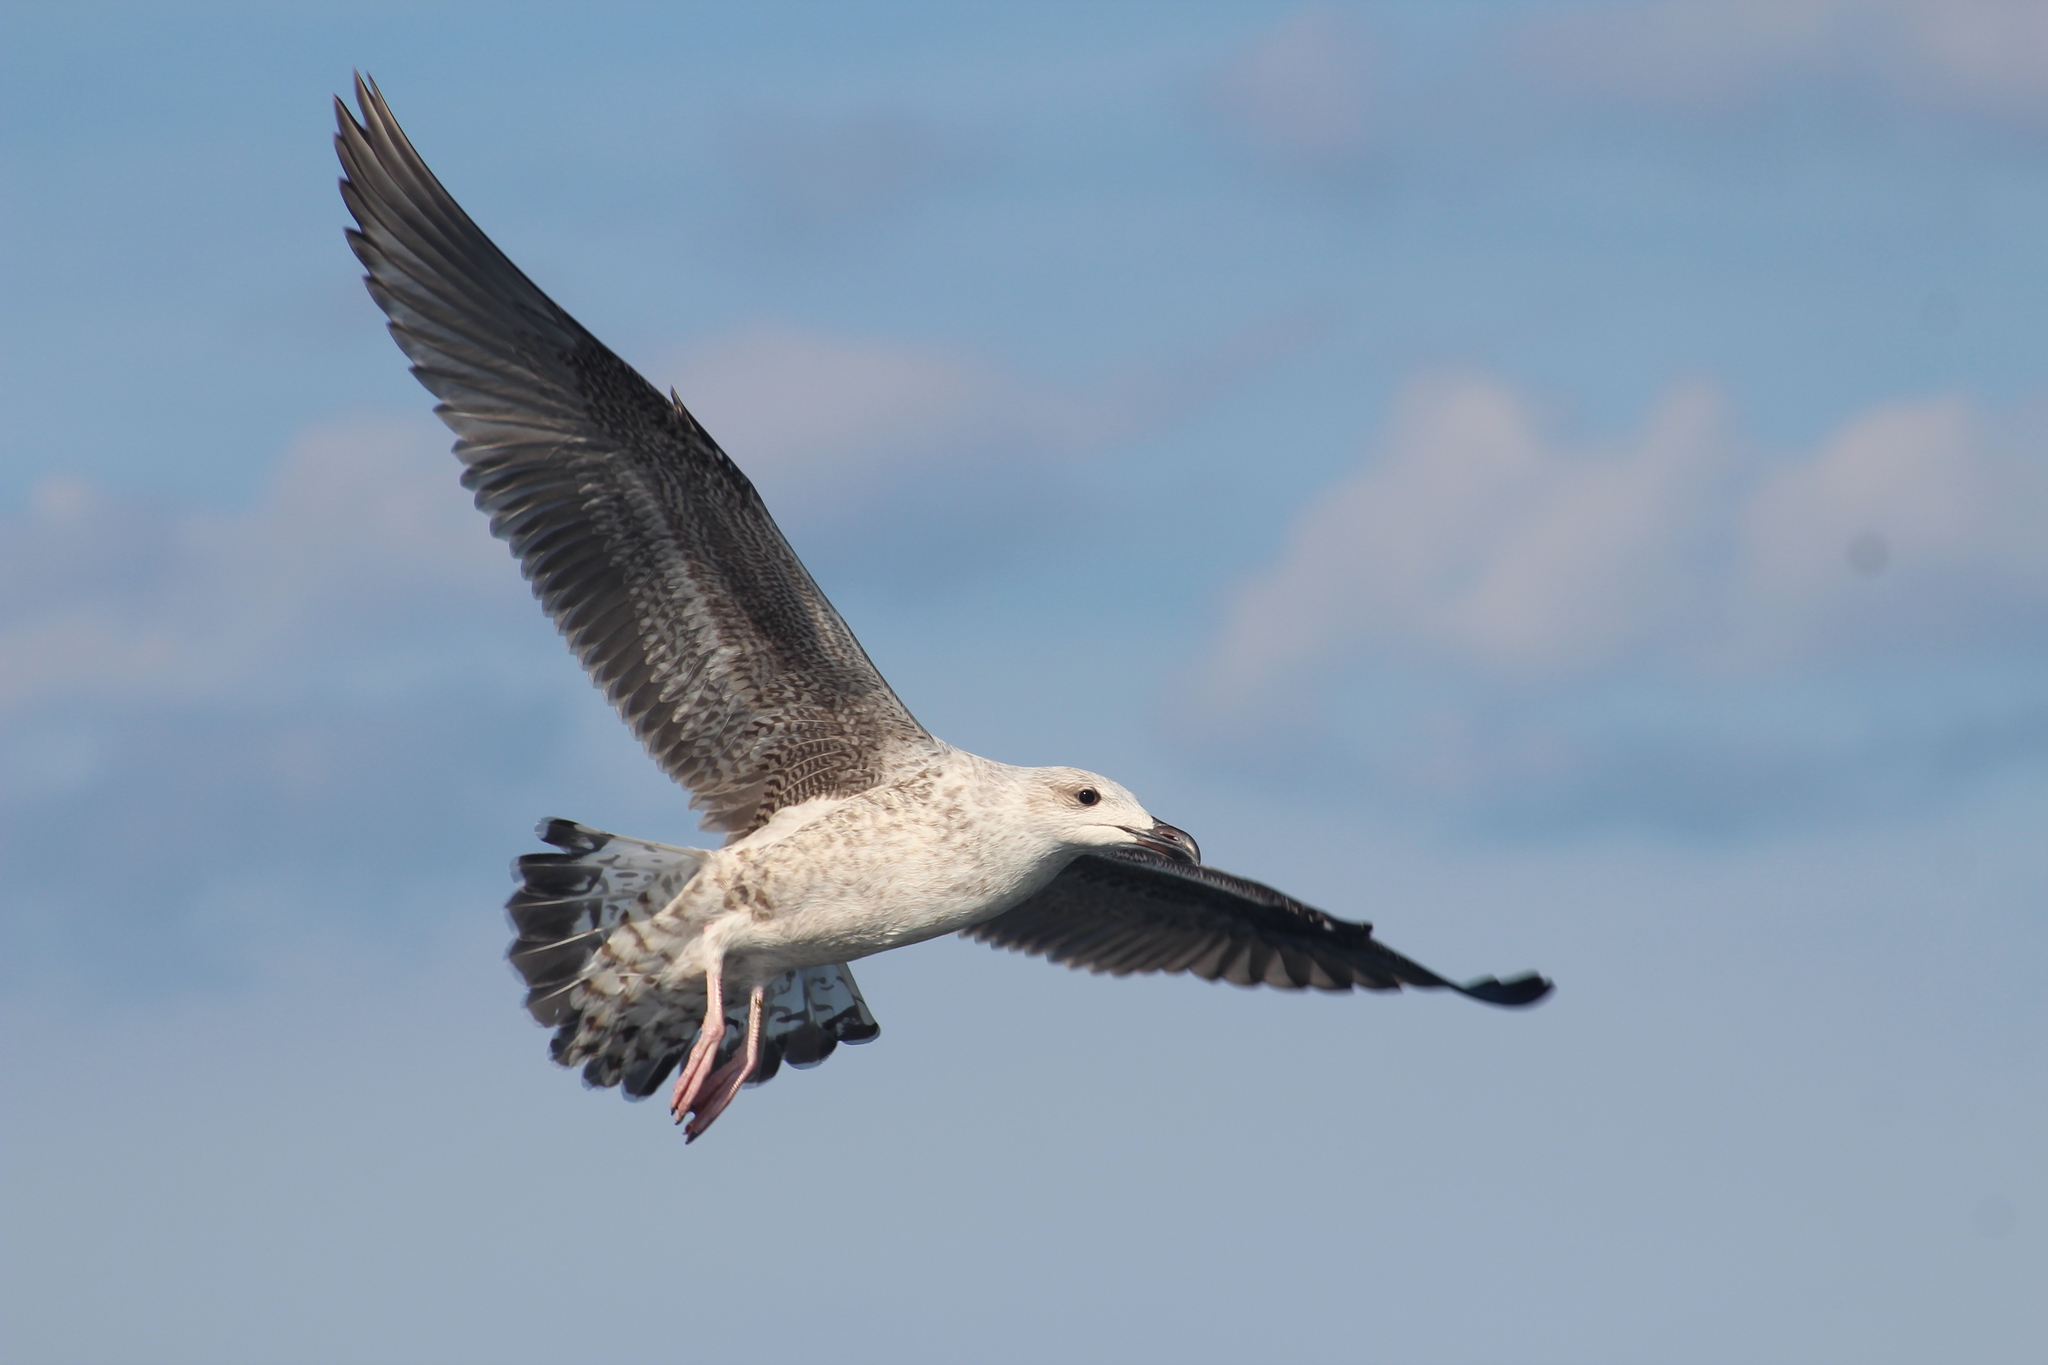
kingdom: Animalia
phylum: Chordata
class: Aves
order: Charadriiformes
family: Laridae
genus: Larus
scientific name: Larus marinus
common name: Great black-backed gull
